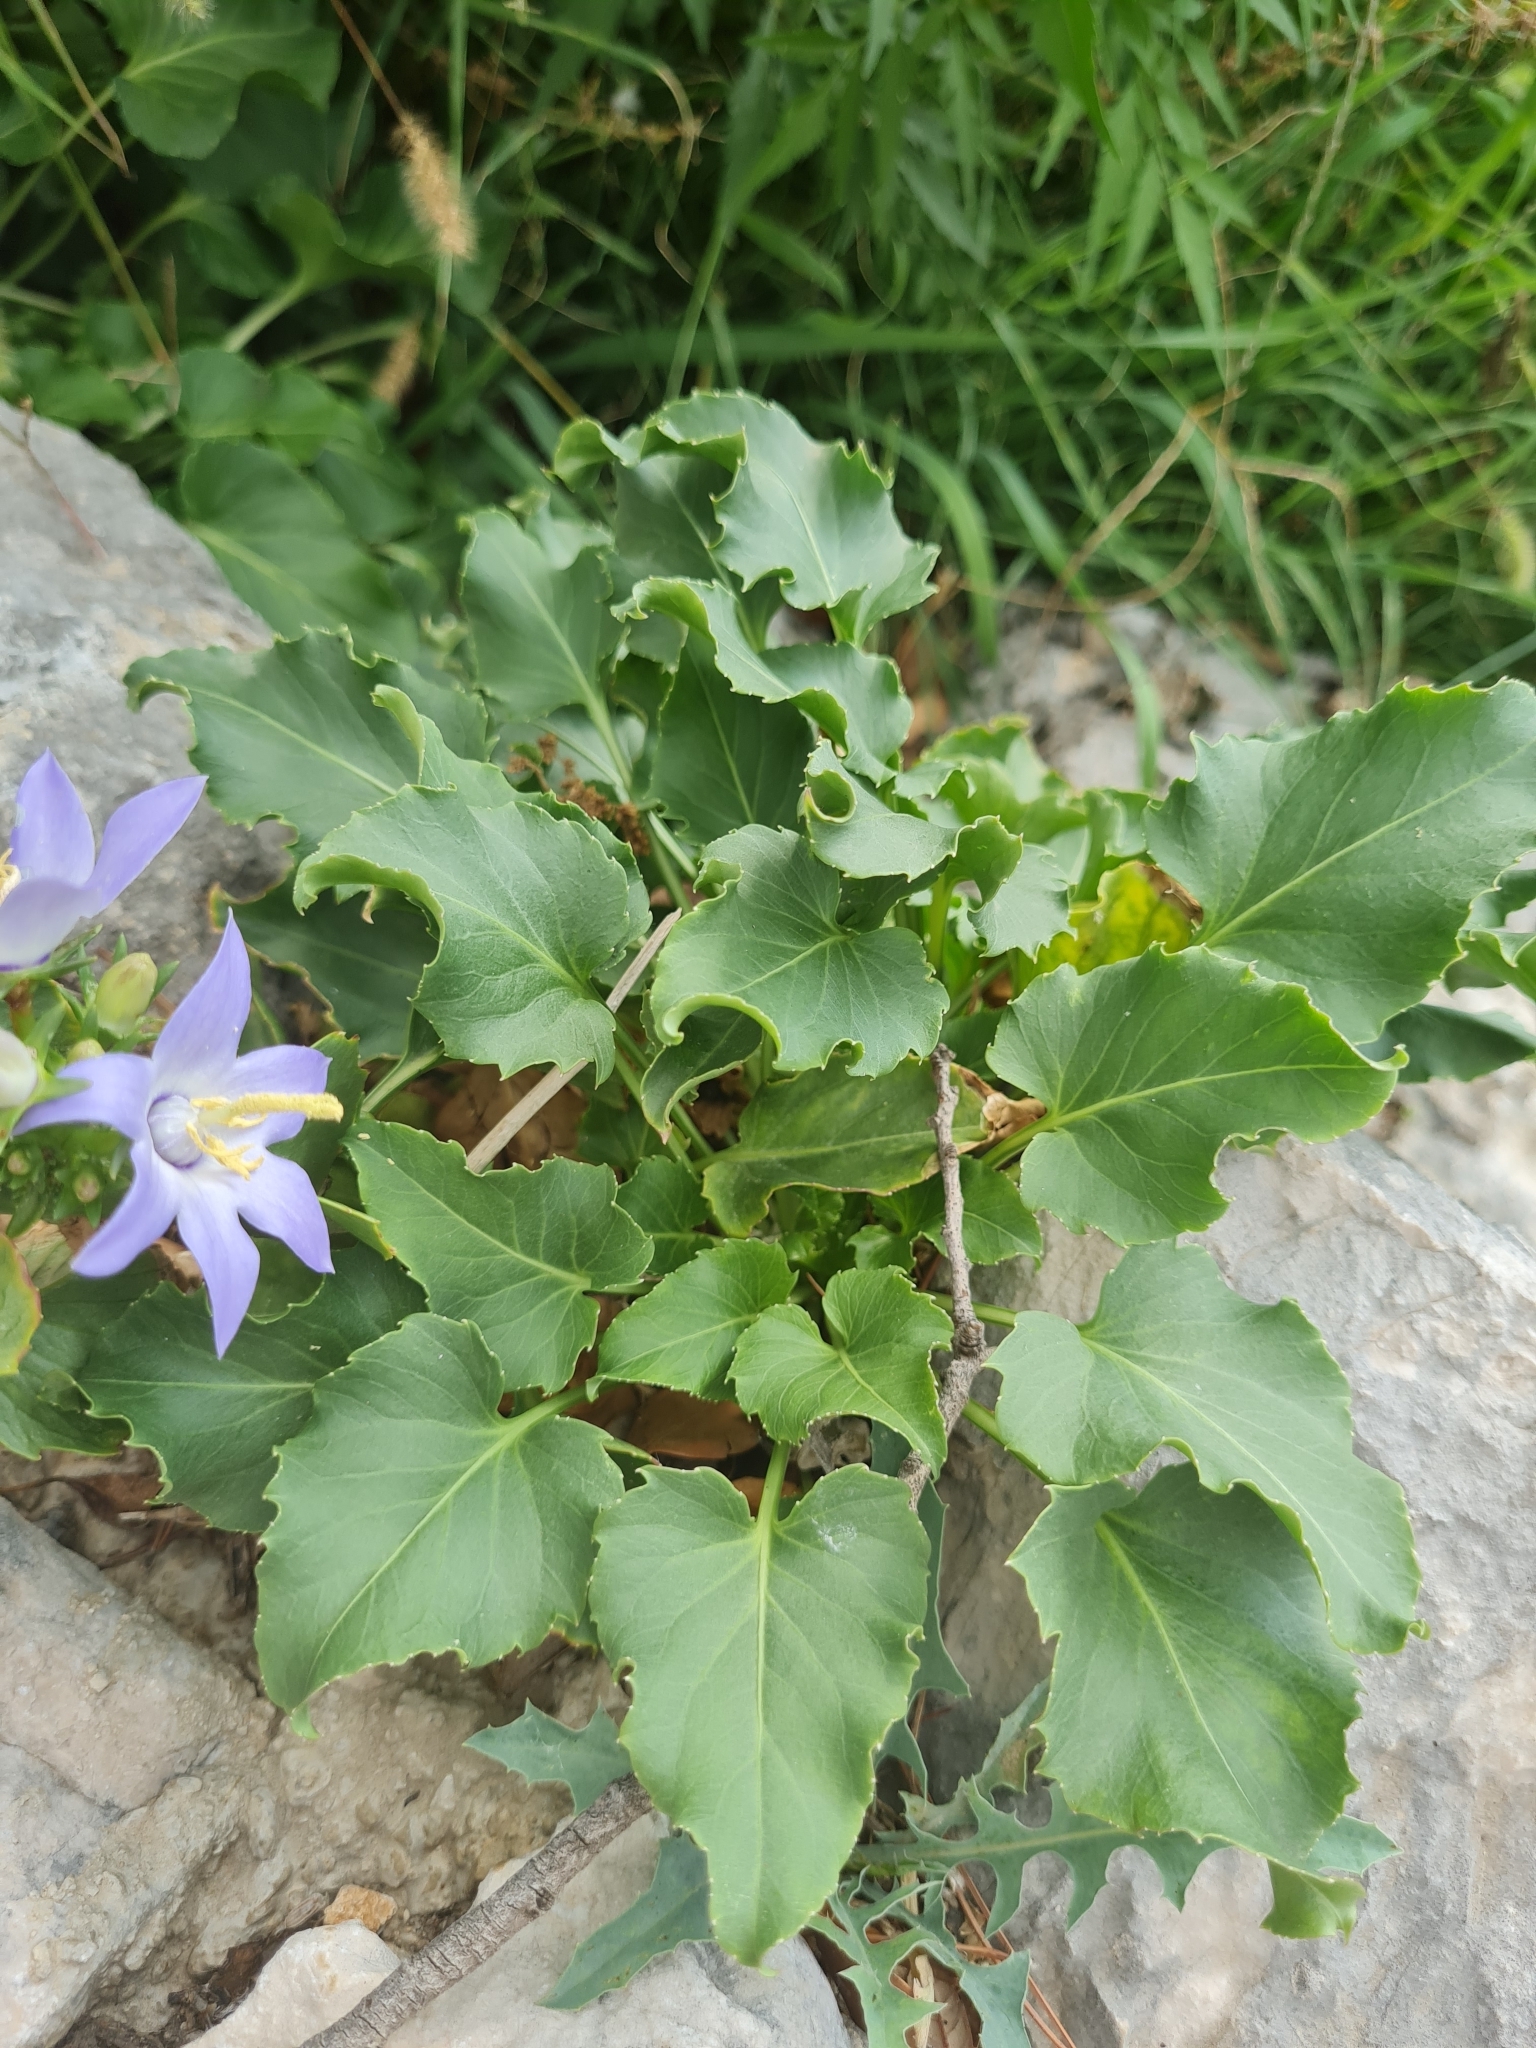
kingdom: Plantae
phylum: Tracheophyta
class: Magnoliopsida
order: Asterales
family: Campanulaceae
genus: Campanula
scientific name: Campanula pyramidalis
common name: Chimney bellflower
